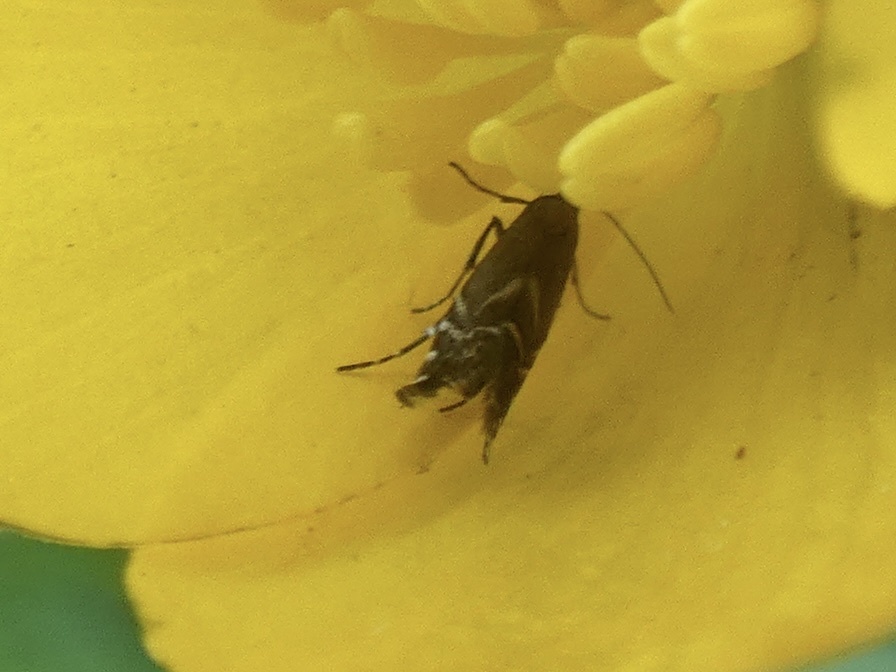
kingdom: Animalia
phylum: Arthropoda
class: Insecta
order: Lepidoptera
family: Glyphipterigidae
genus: Glyphipterix
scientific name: Glyphipterix simpliciella
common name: Cocksfoot moth
